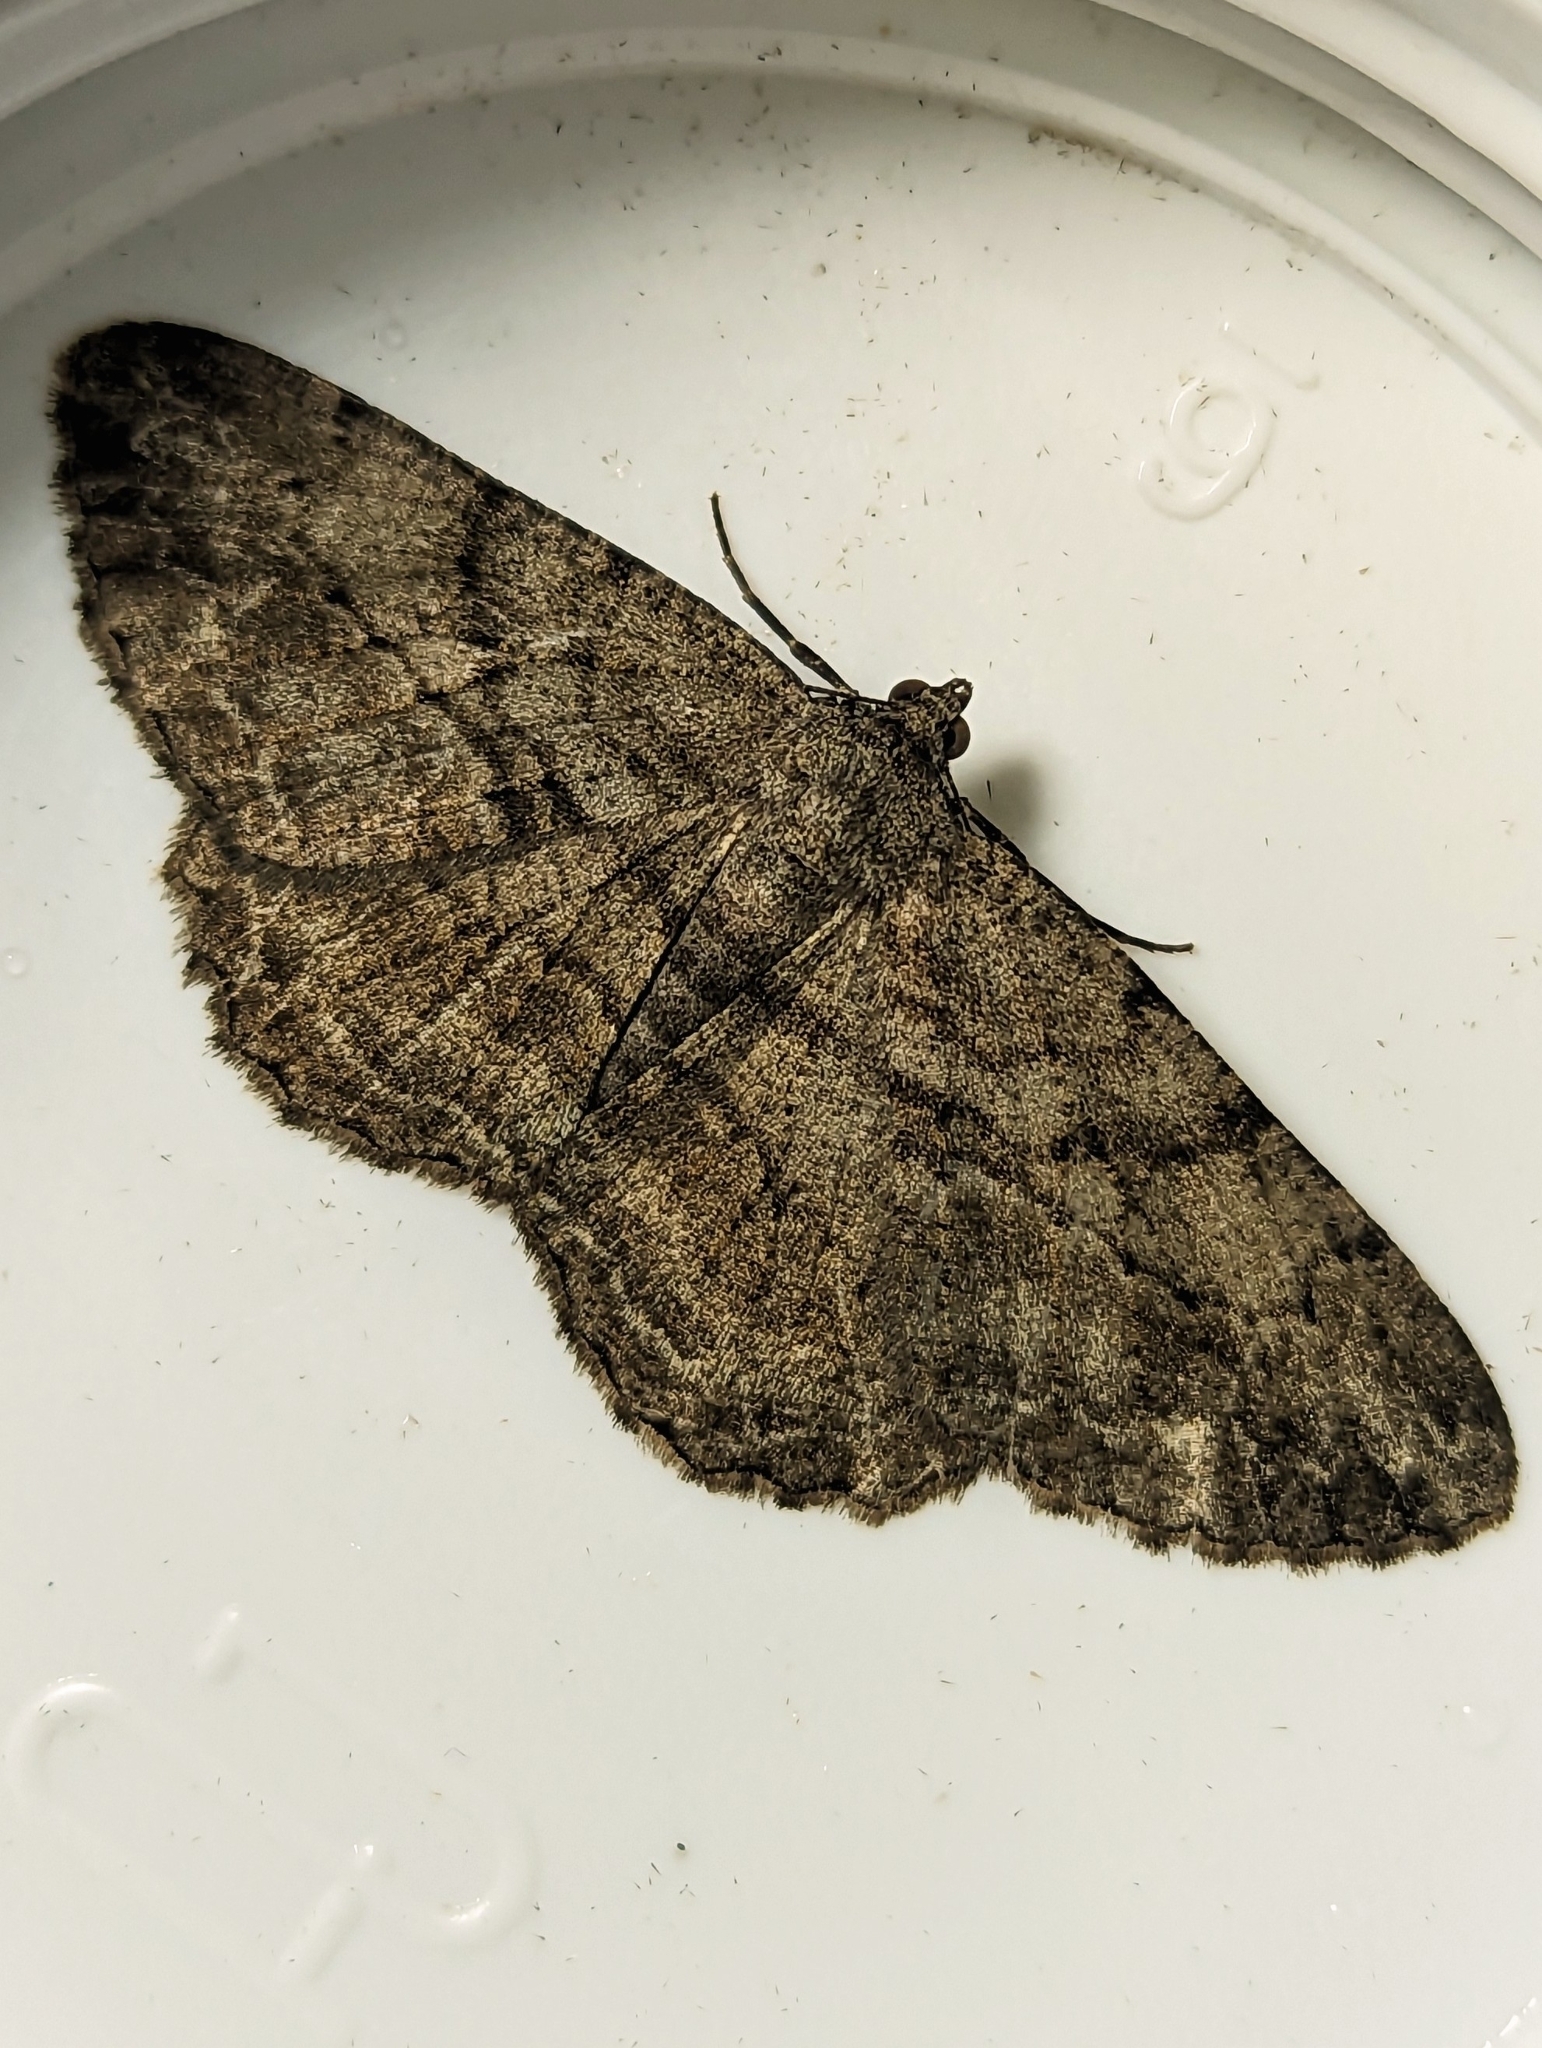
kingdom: Animalia
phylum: Arthropoda
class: Insecta
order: Lepidoptera
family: Geometridae
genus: Peribatodes
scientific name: Peribatodes rhomboidaria
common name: Willow beauty
